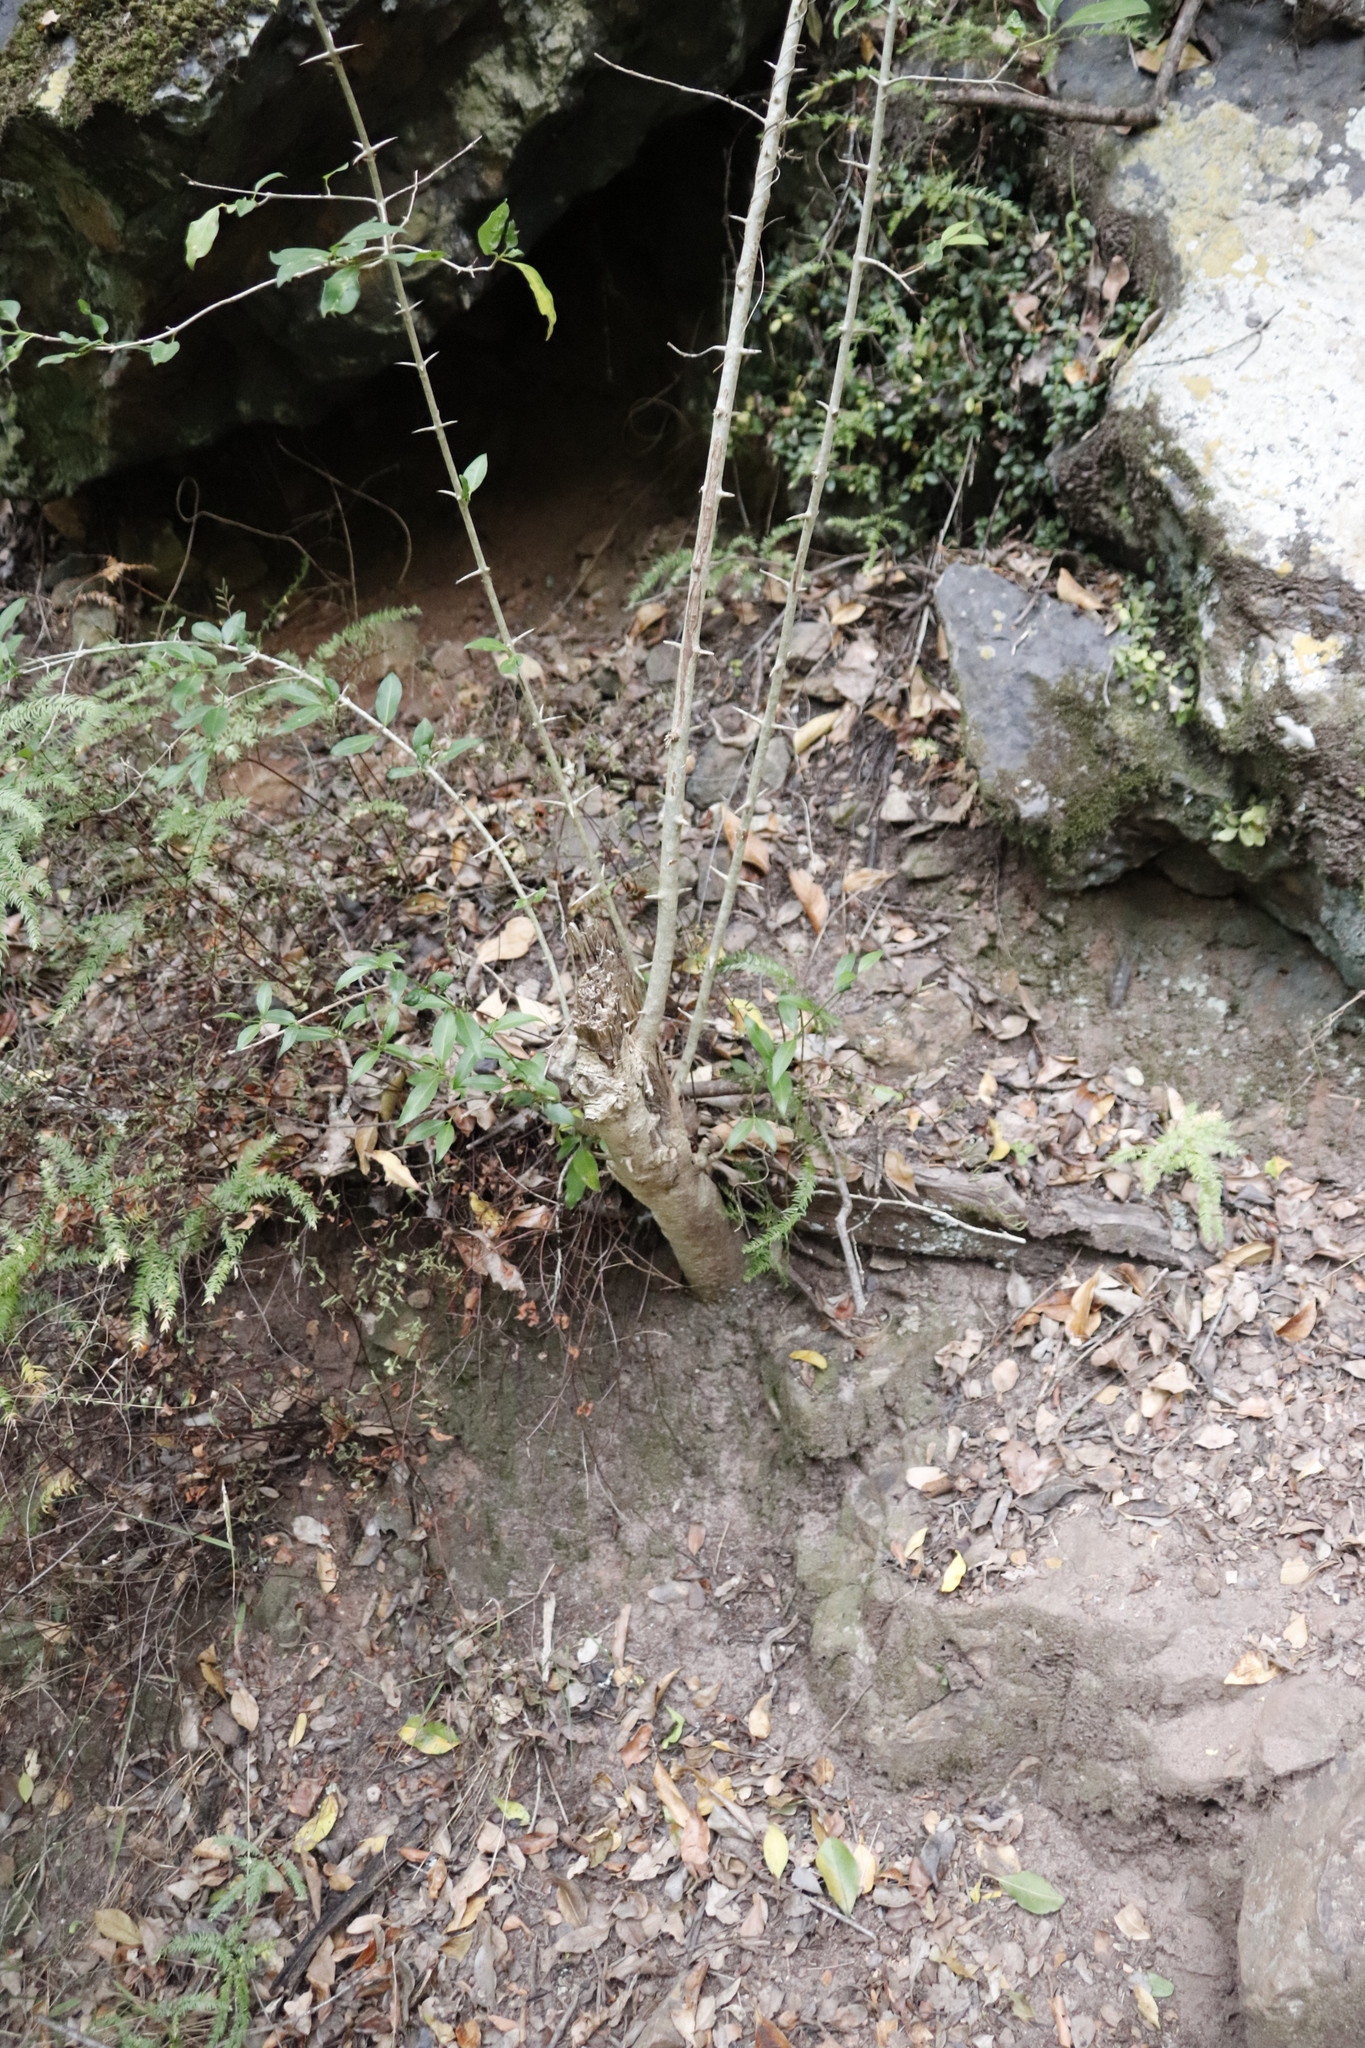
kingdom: Plantae
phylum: Tracheophyta
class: Magnoliopsida
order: Gentianales
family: Rubiaceae
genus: Canthium
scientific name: Canthium inerme
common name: Unarmed turkey-berry
